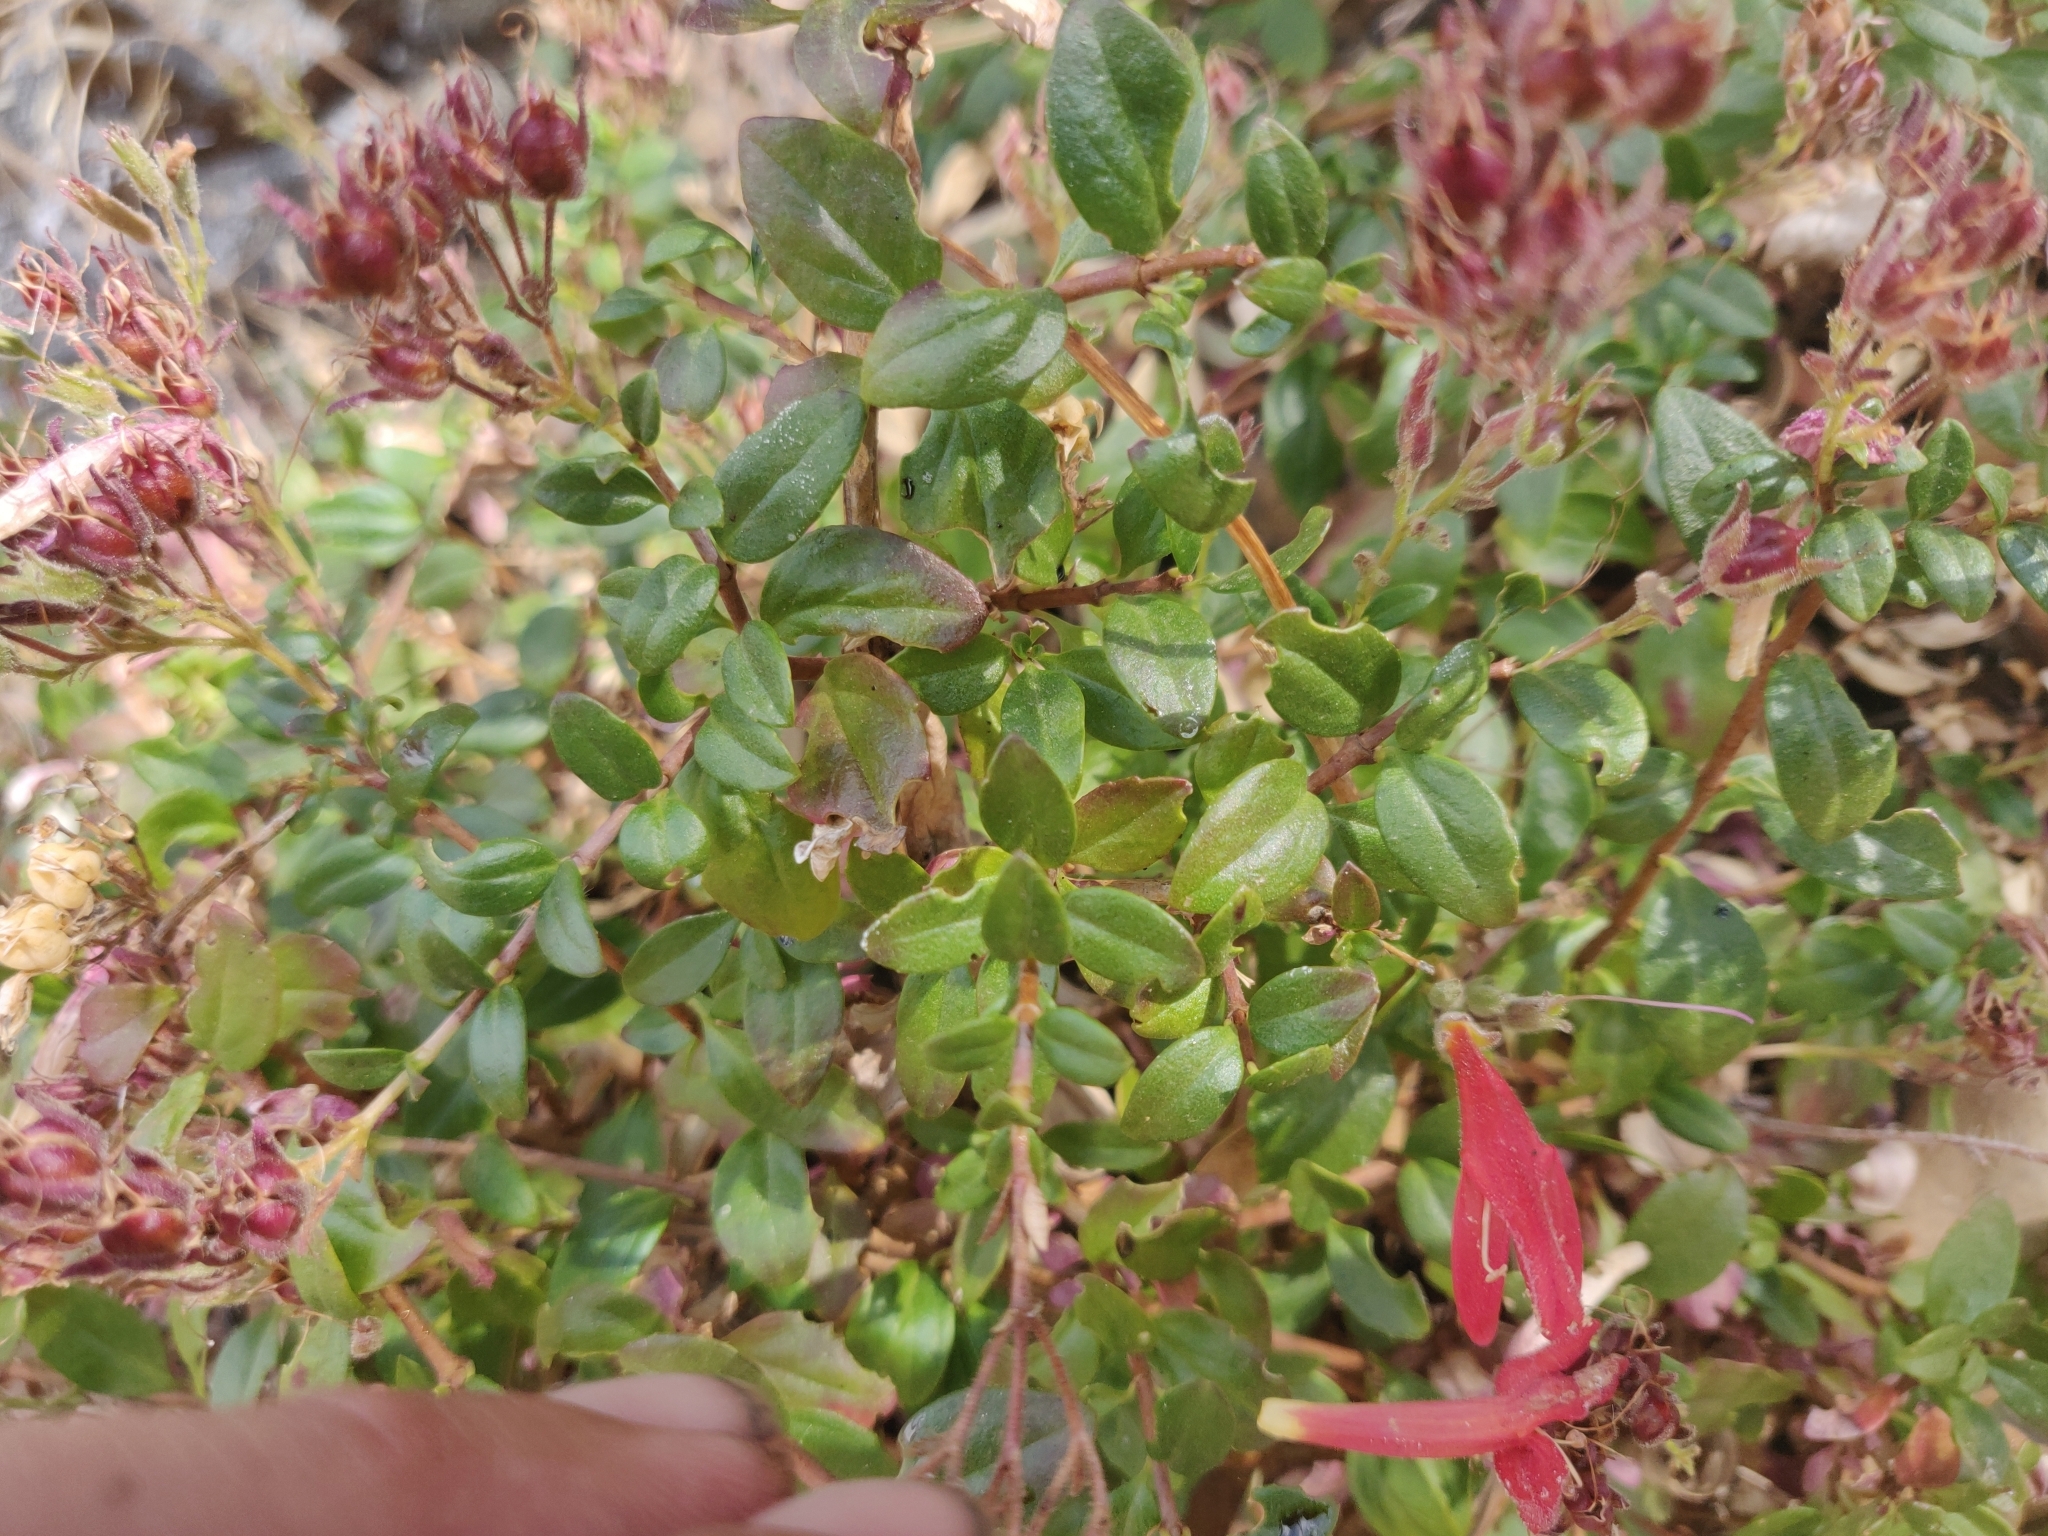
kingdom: Plantae
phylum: Tracheophyta
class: Magnoliopsida
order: Lamiales
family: Plantaginaceae
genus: Keckiella
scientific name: Keckiella corymbosa
